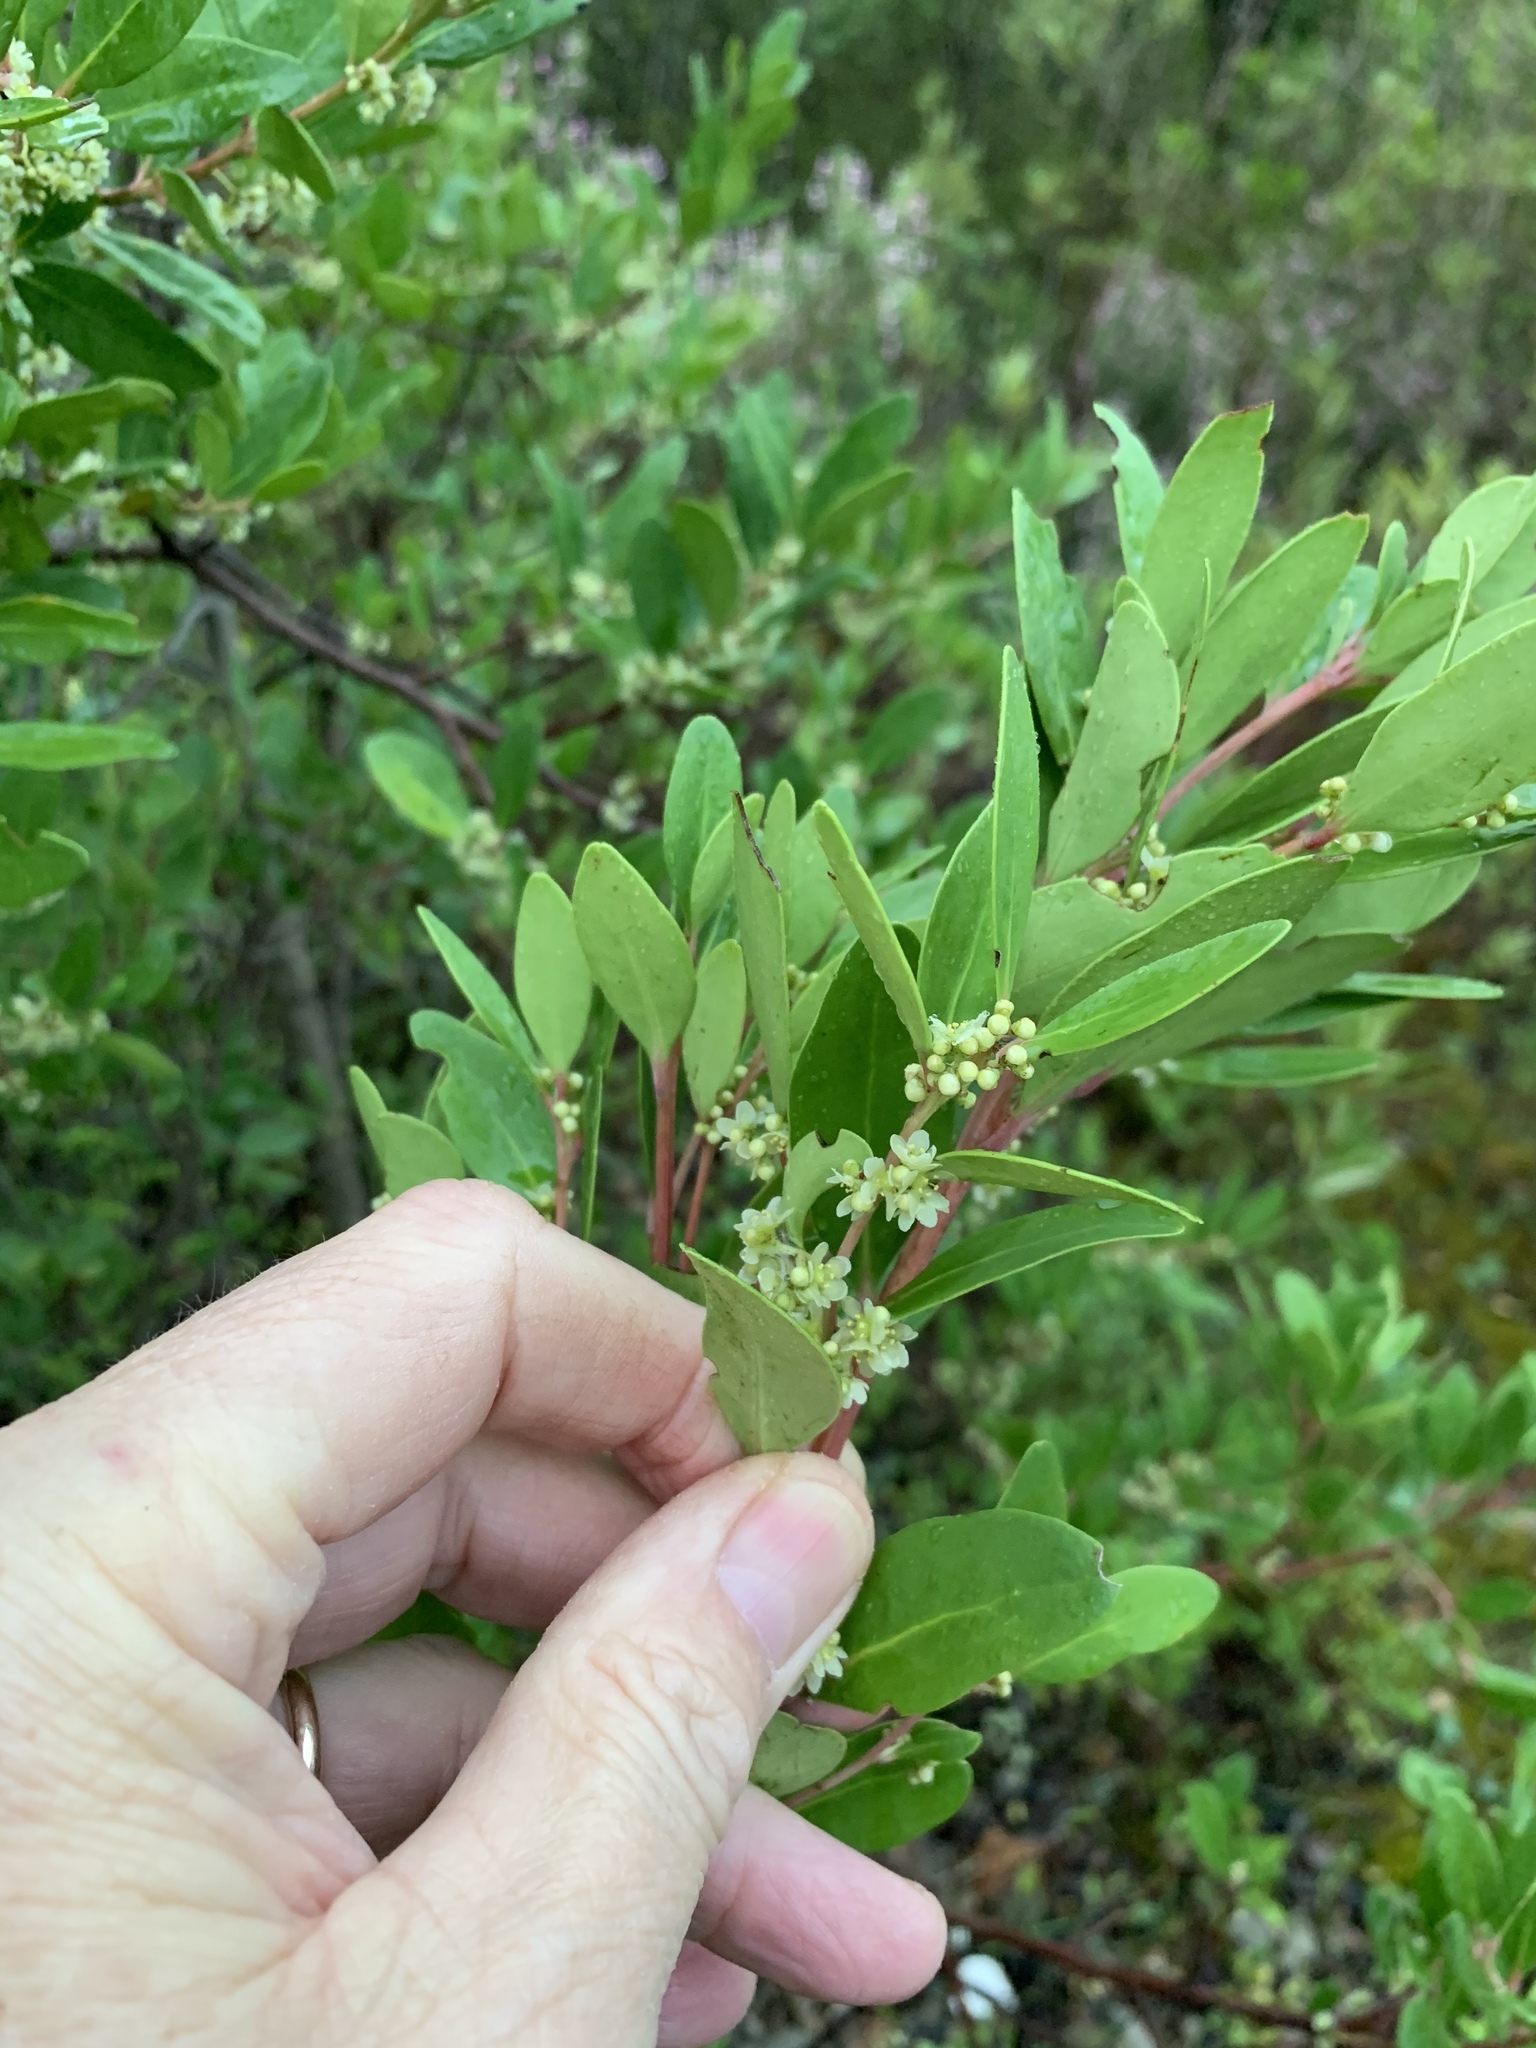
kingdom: Plantae
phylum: Tracheophyta
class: Magnoliopsida
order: Celastrales
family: Celastraceae
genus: Gymnosporia
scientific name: Gymnosporia laurina
